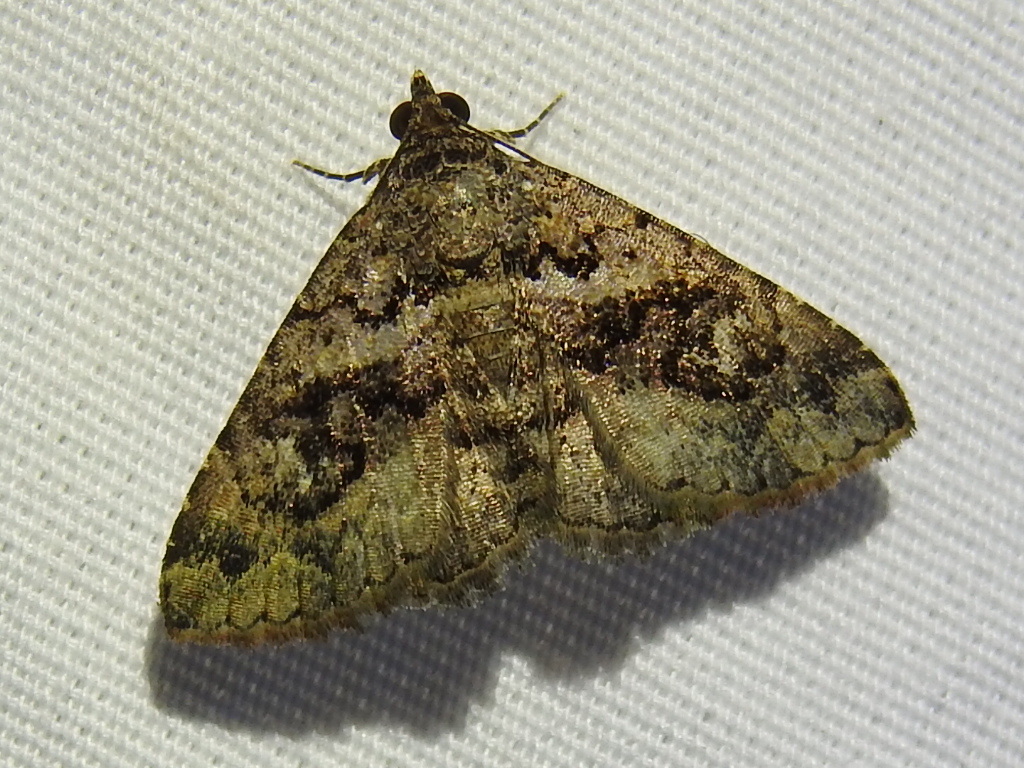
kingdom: Animalia
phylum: Arthropoda
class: Insecta
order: Lepidoptera
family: Erebidae
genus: Toxonprucha
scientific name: Toxonprucha excavata
